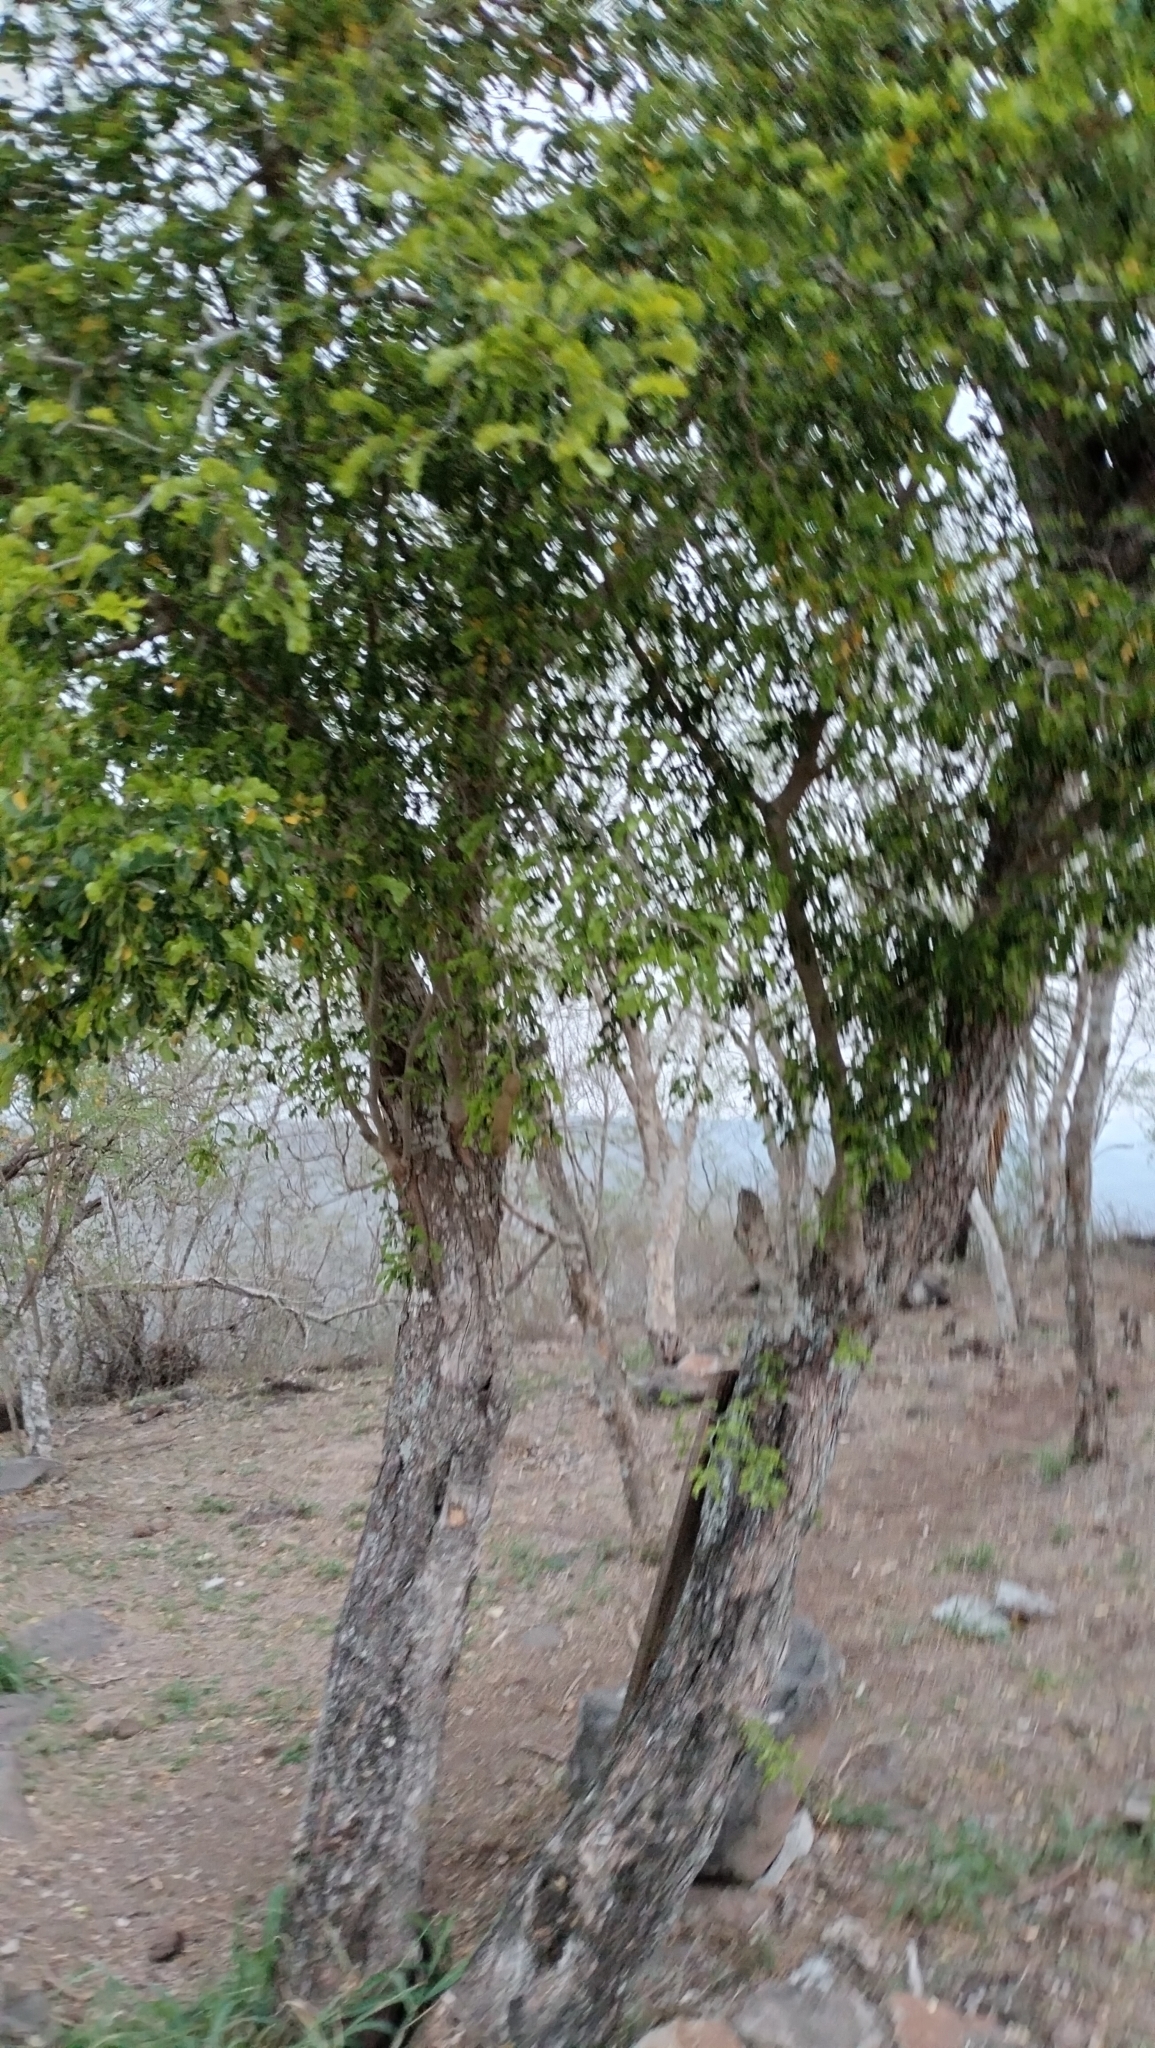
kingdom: Plantae
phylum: Tracheophyta
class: Magnoliopsida
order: Fabales
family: Fabaceae
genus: Ebenopsis
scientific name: Ebenopsis ebano
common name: Ebony blackbead
